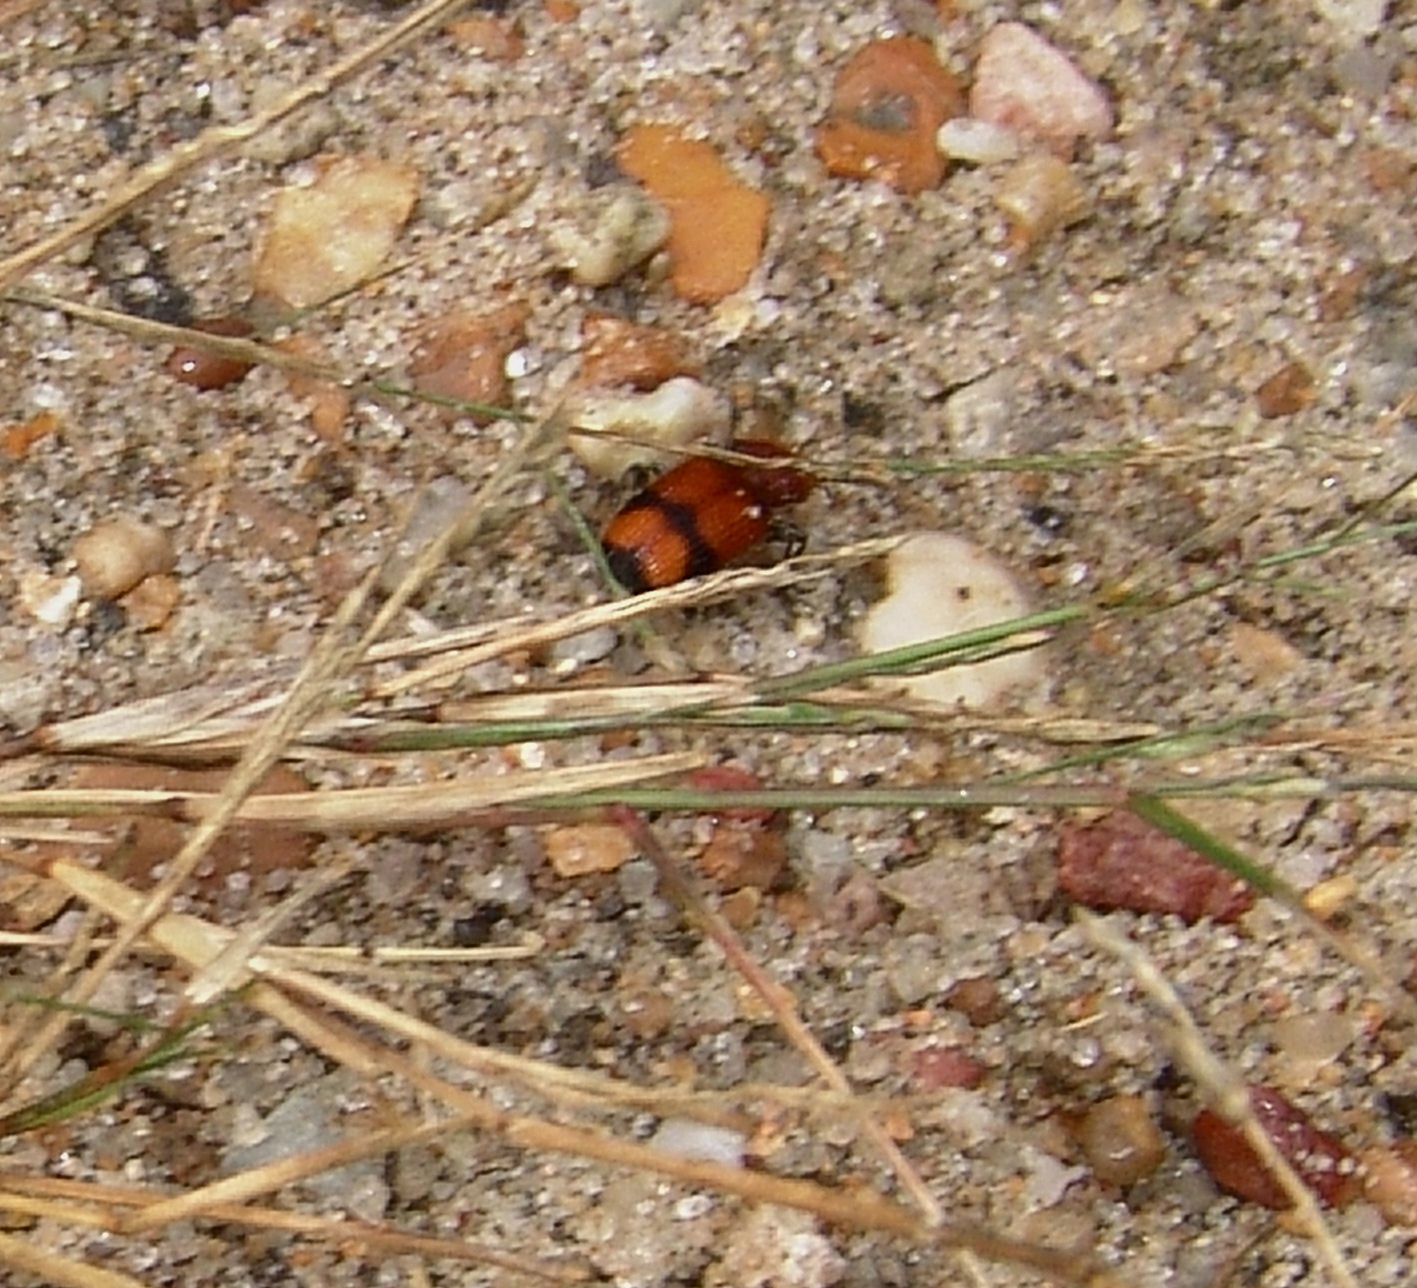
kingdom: Animalia
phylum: Arthropoda
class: Insecta
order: Coleoptera
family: Carabidae
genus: Panagaeus
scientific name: Panagaeus fasciatus
